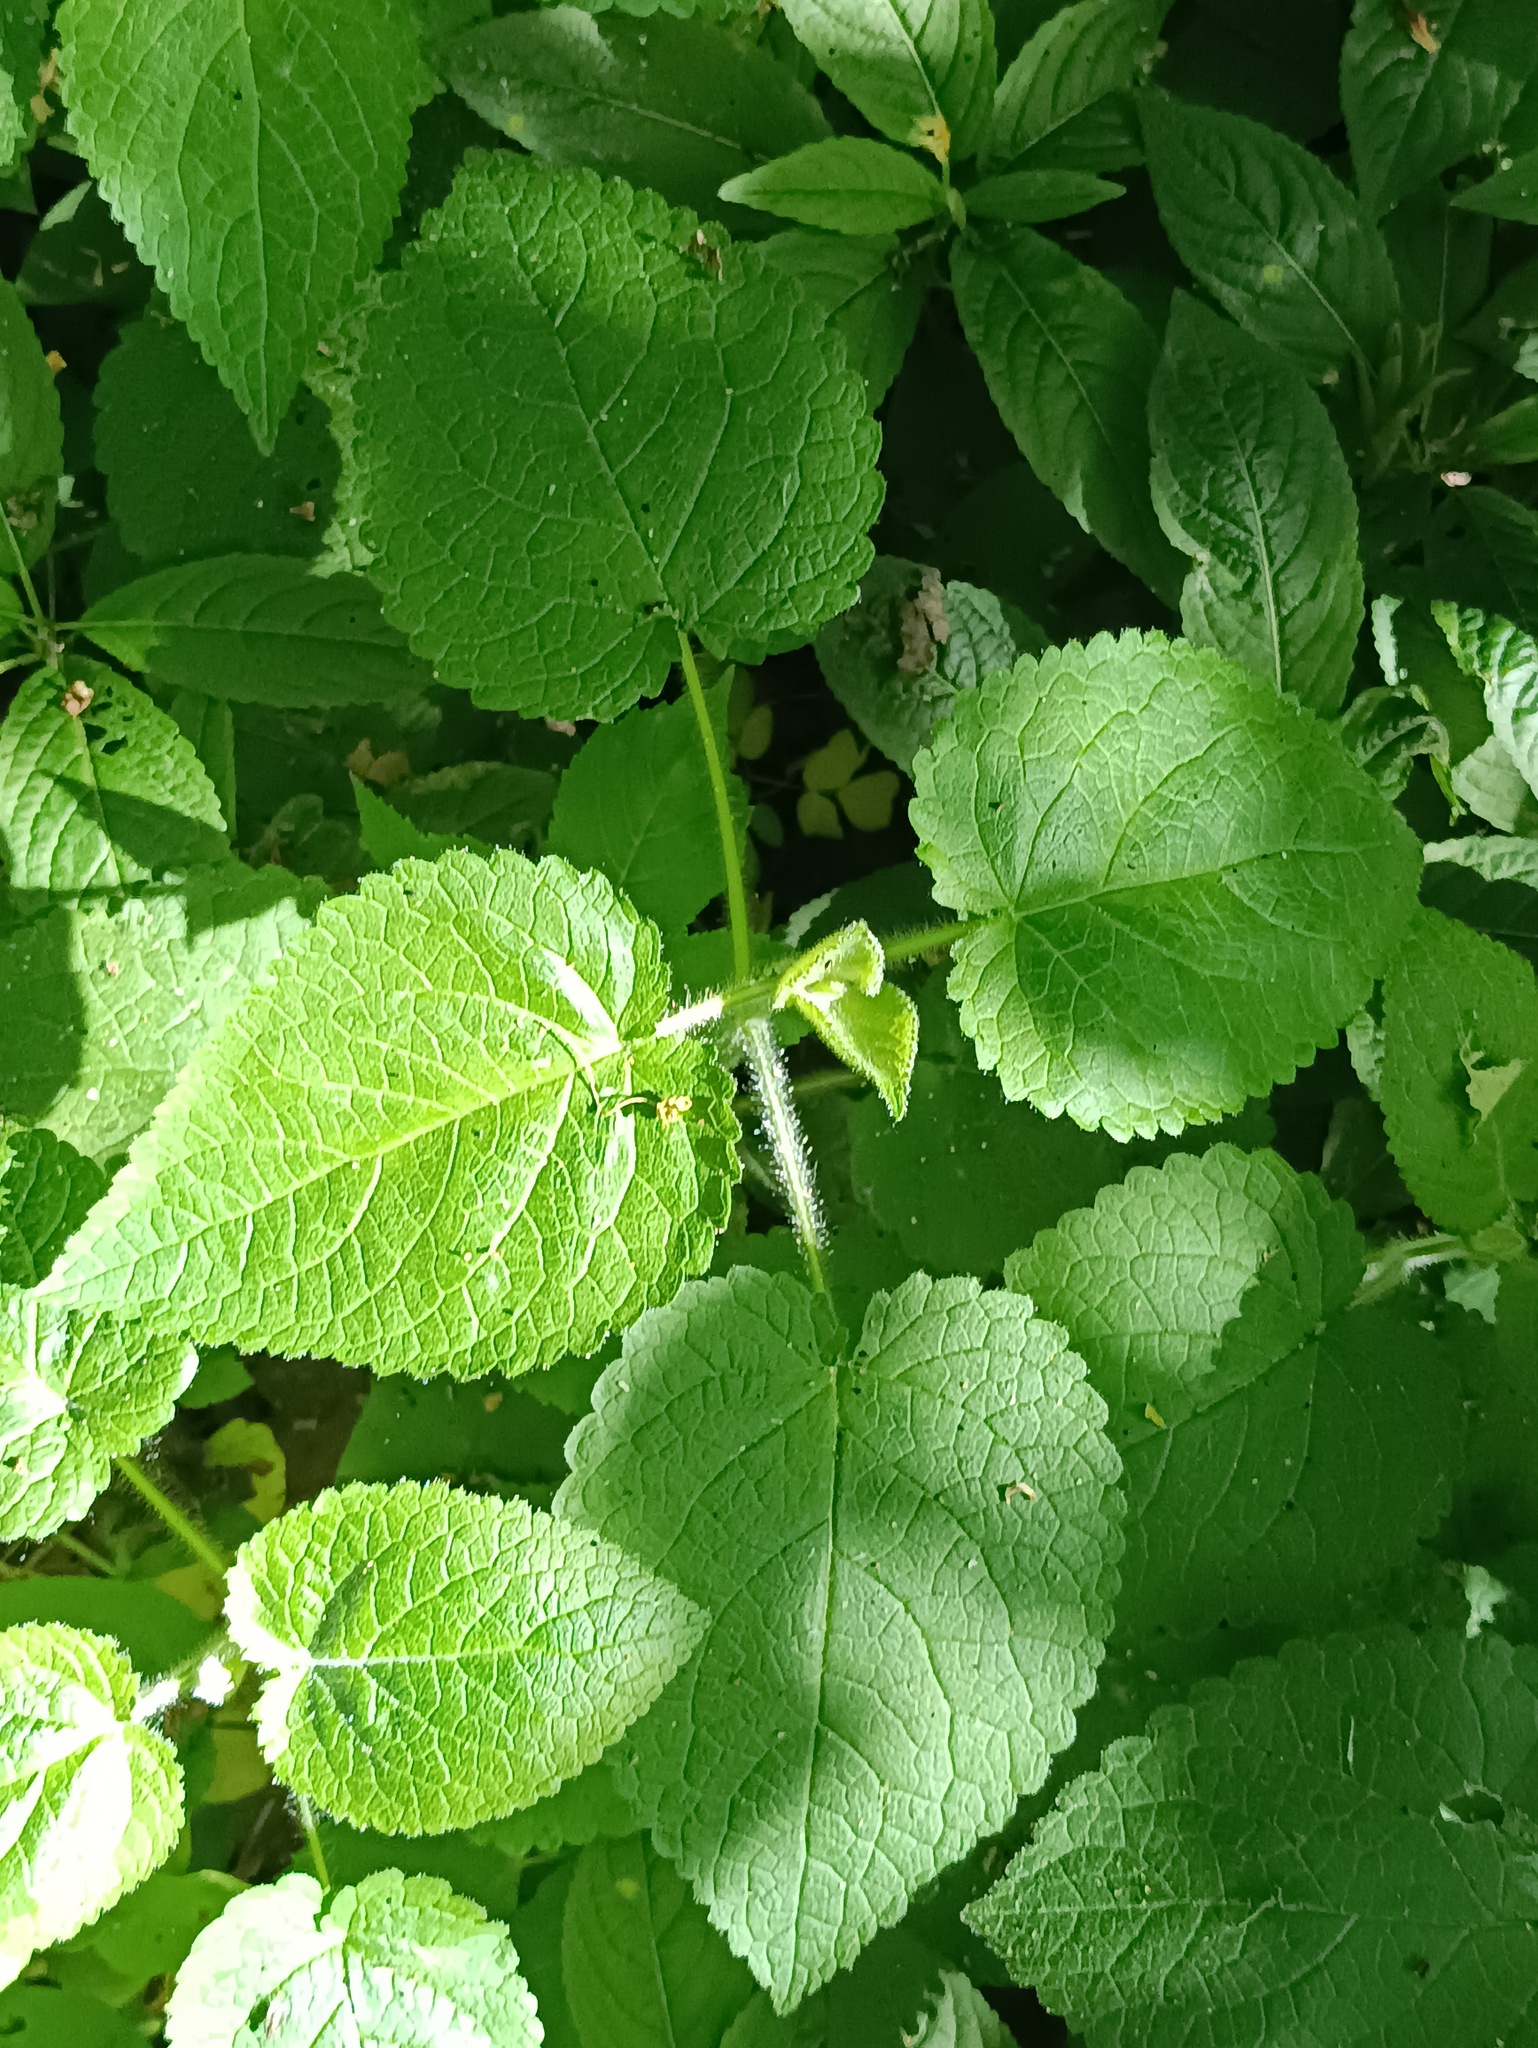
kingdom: Plantae
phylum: Tracheophyta
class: Magnoliopsida
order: Lamiales
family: Lamiaceae
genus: Stachys
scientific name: Stachys sylvatica
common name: Hedge woundwort
